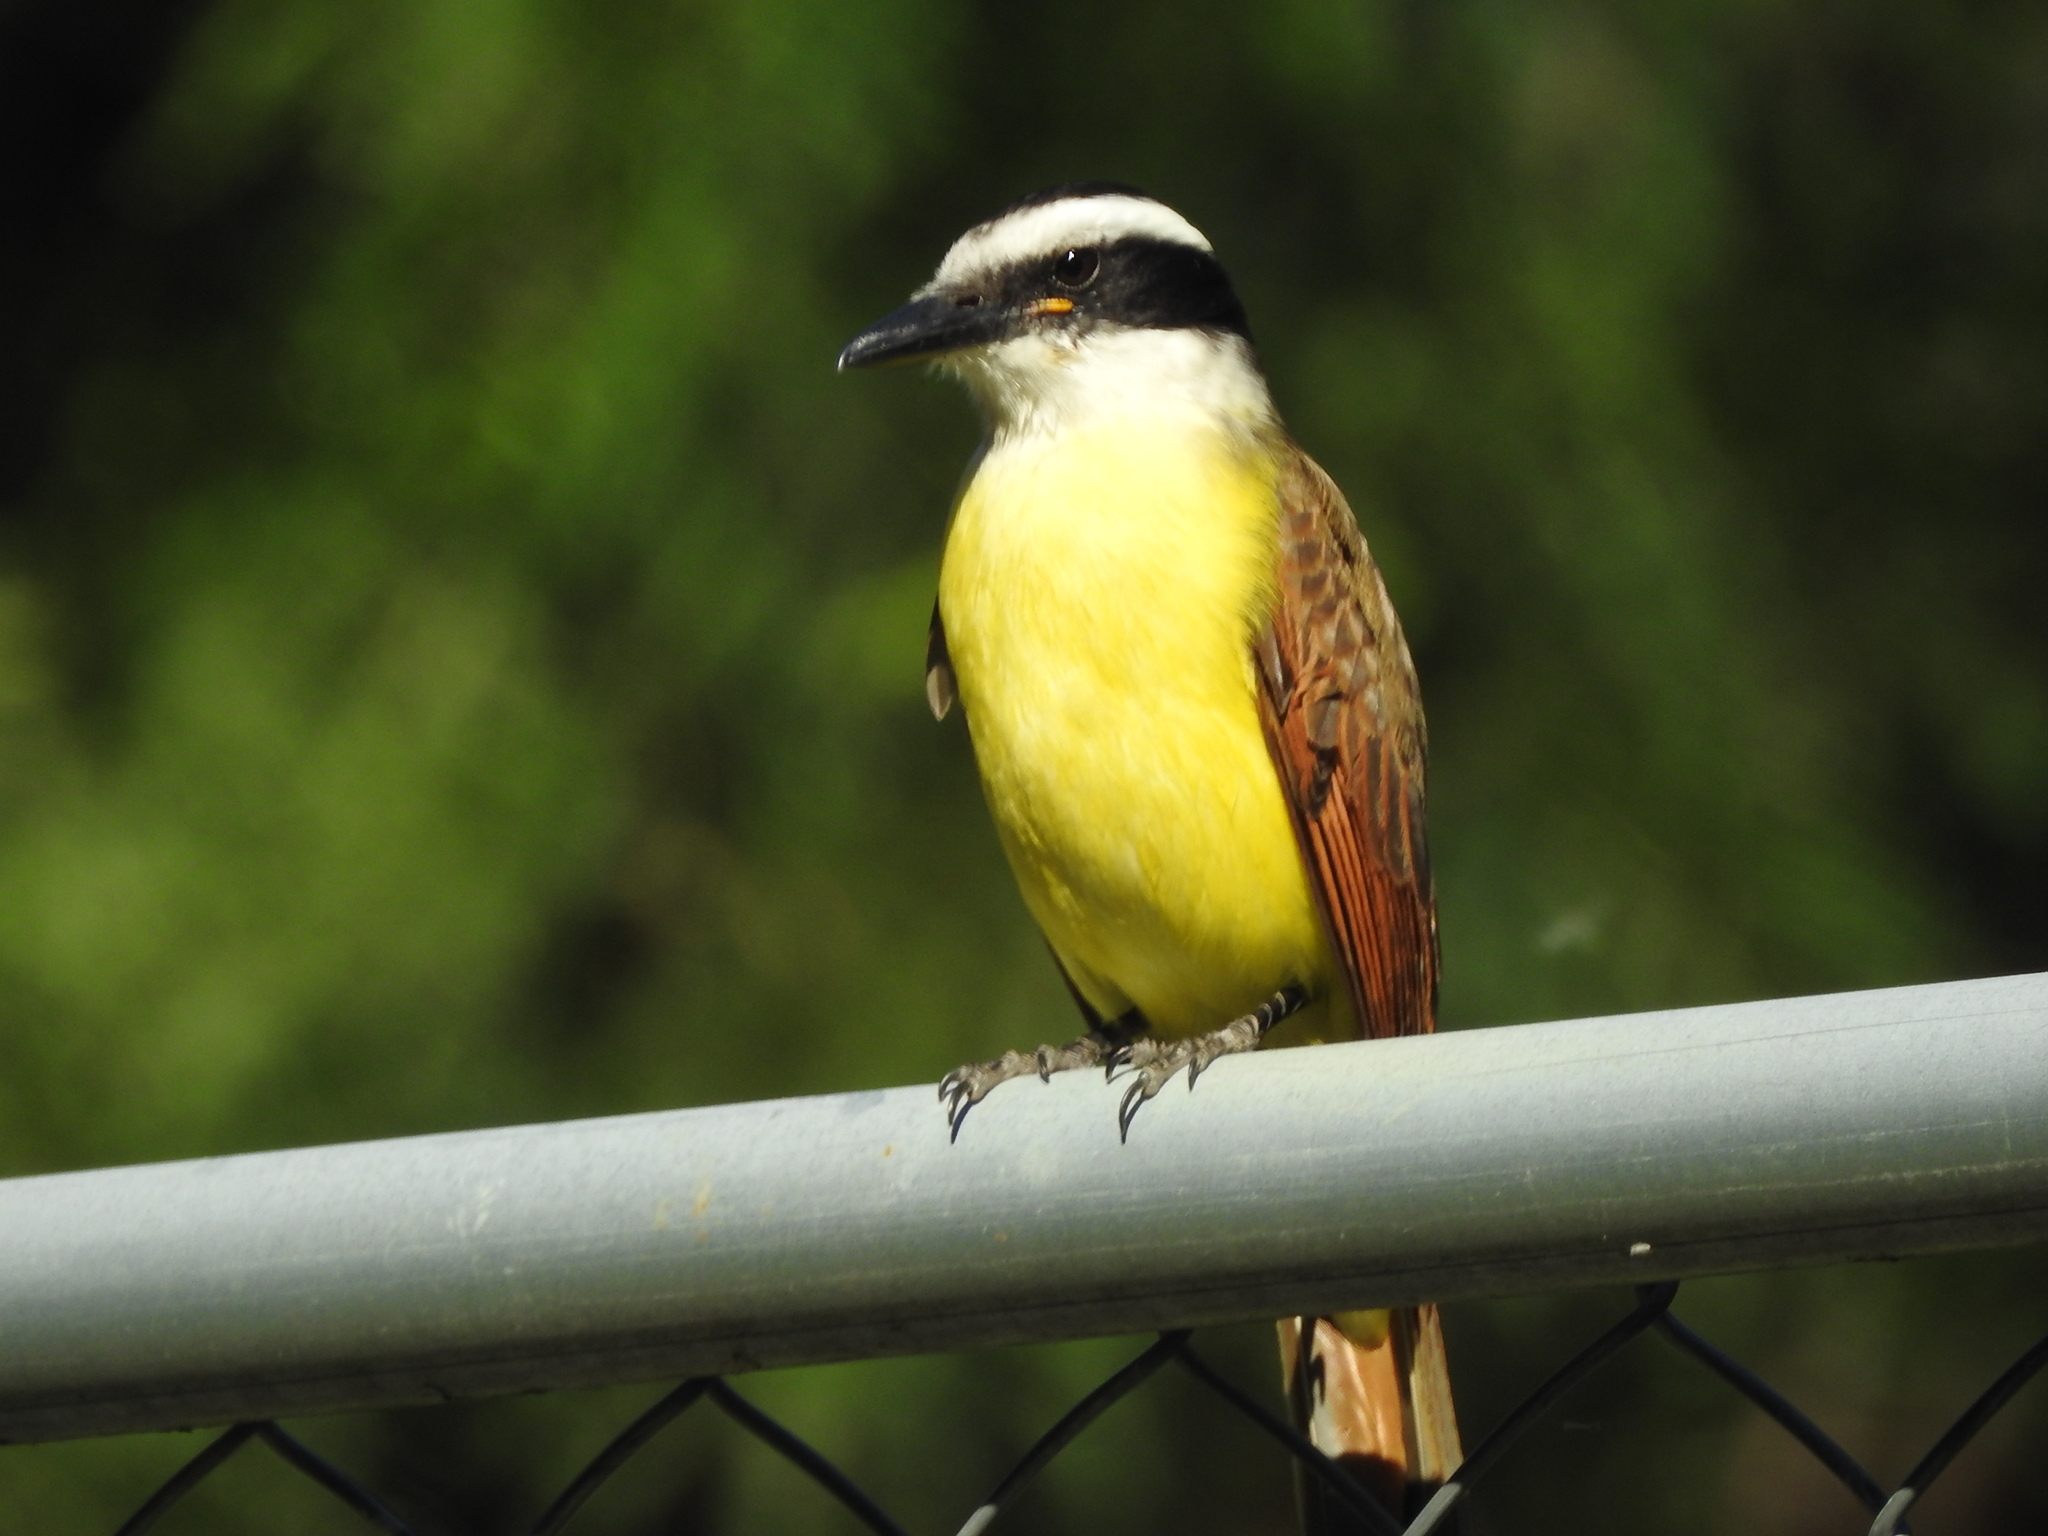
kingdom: Animalia
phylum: Chordata
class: Aves
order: Passeriformes
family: Tyrannidae
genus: Pitangus
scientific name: Pitangus sulphuratus
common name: Great kiskadee
